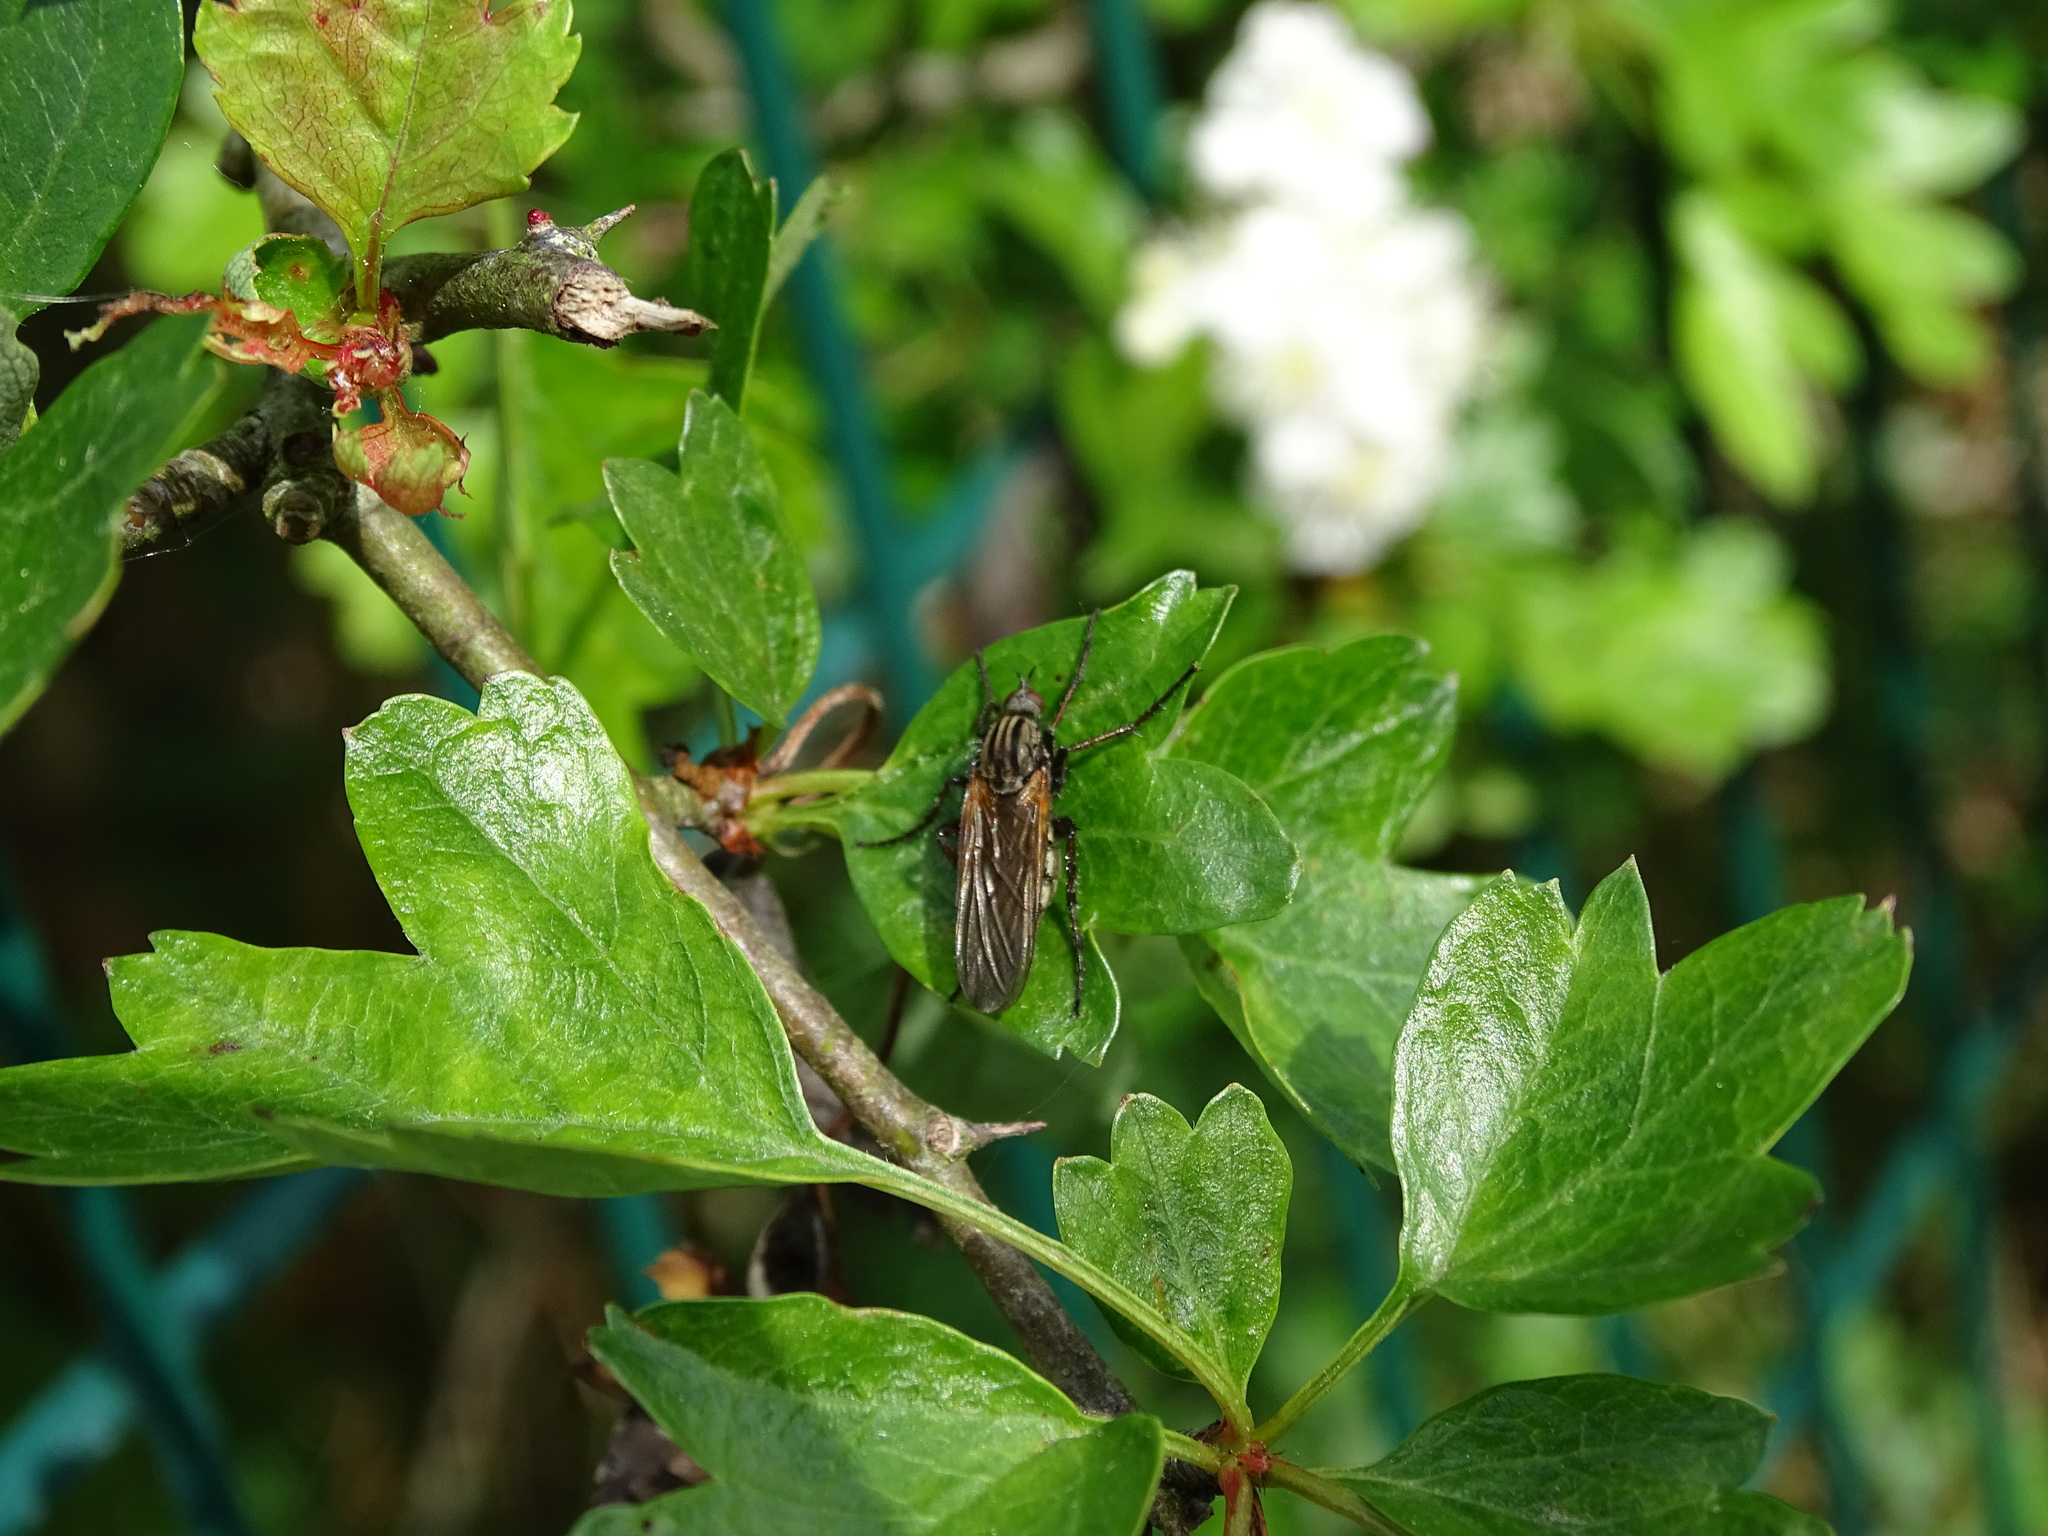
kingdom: Animalia
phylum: Arthropoda
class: Insecta
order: Diptera
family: Empididae
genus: Empis
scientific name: Empis tessellata
